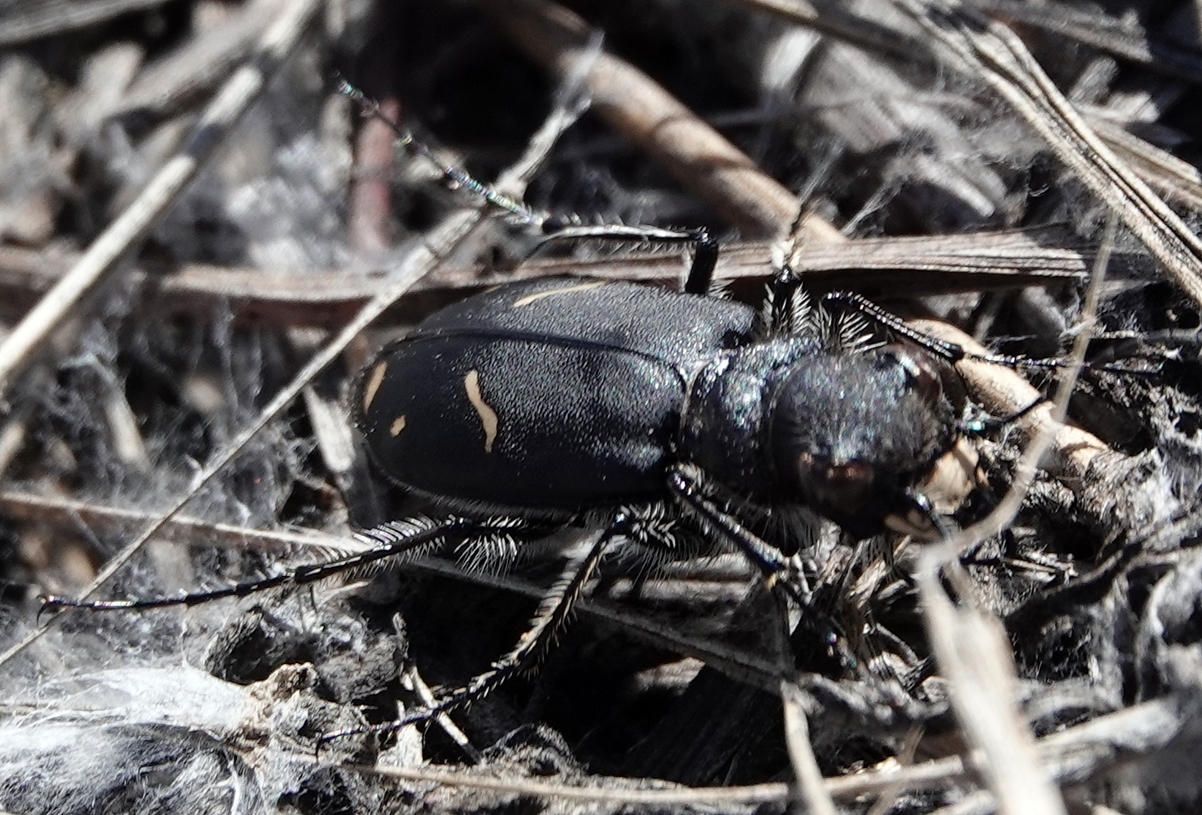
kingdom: Animalia
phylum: Arthropoda
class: Insecta
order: Coleoptera
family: Carabidae
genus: Cicindela
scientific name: Cicindela purpurea
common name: Cow path tiger beetle
